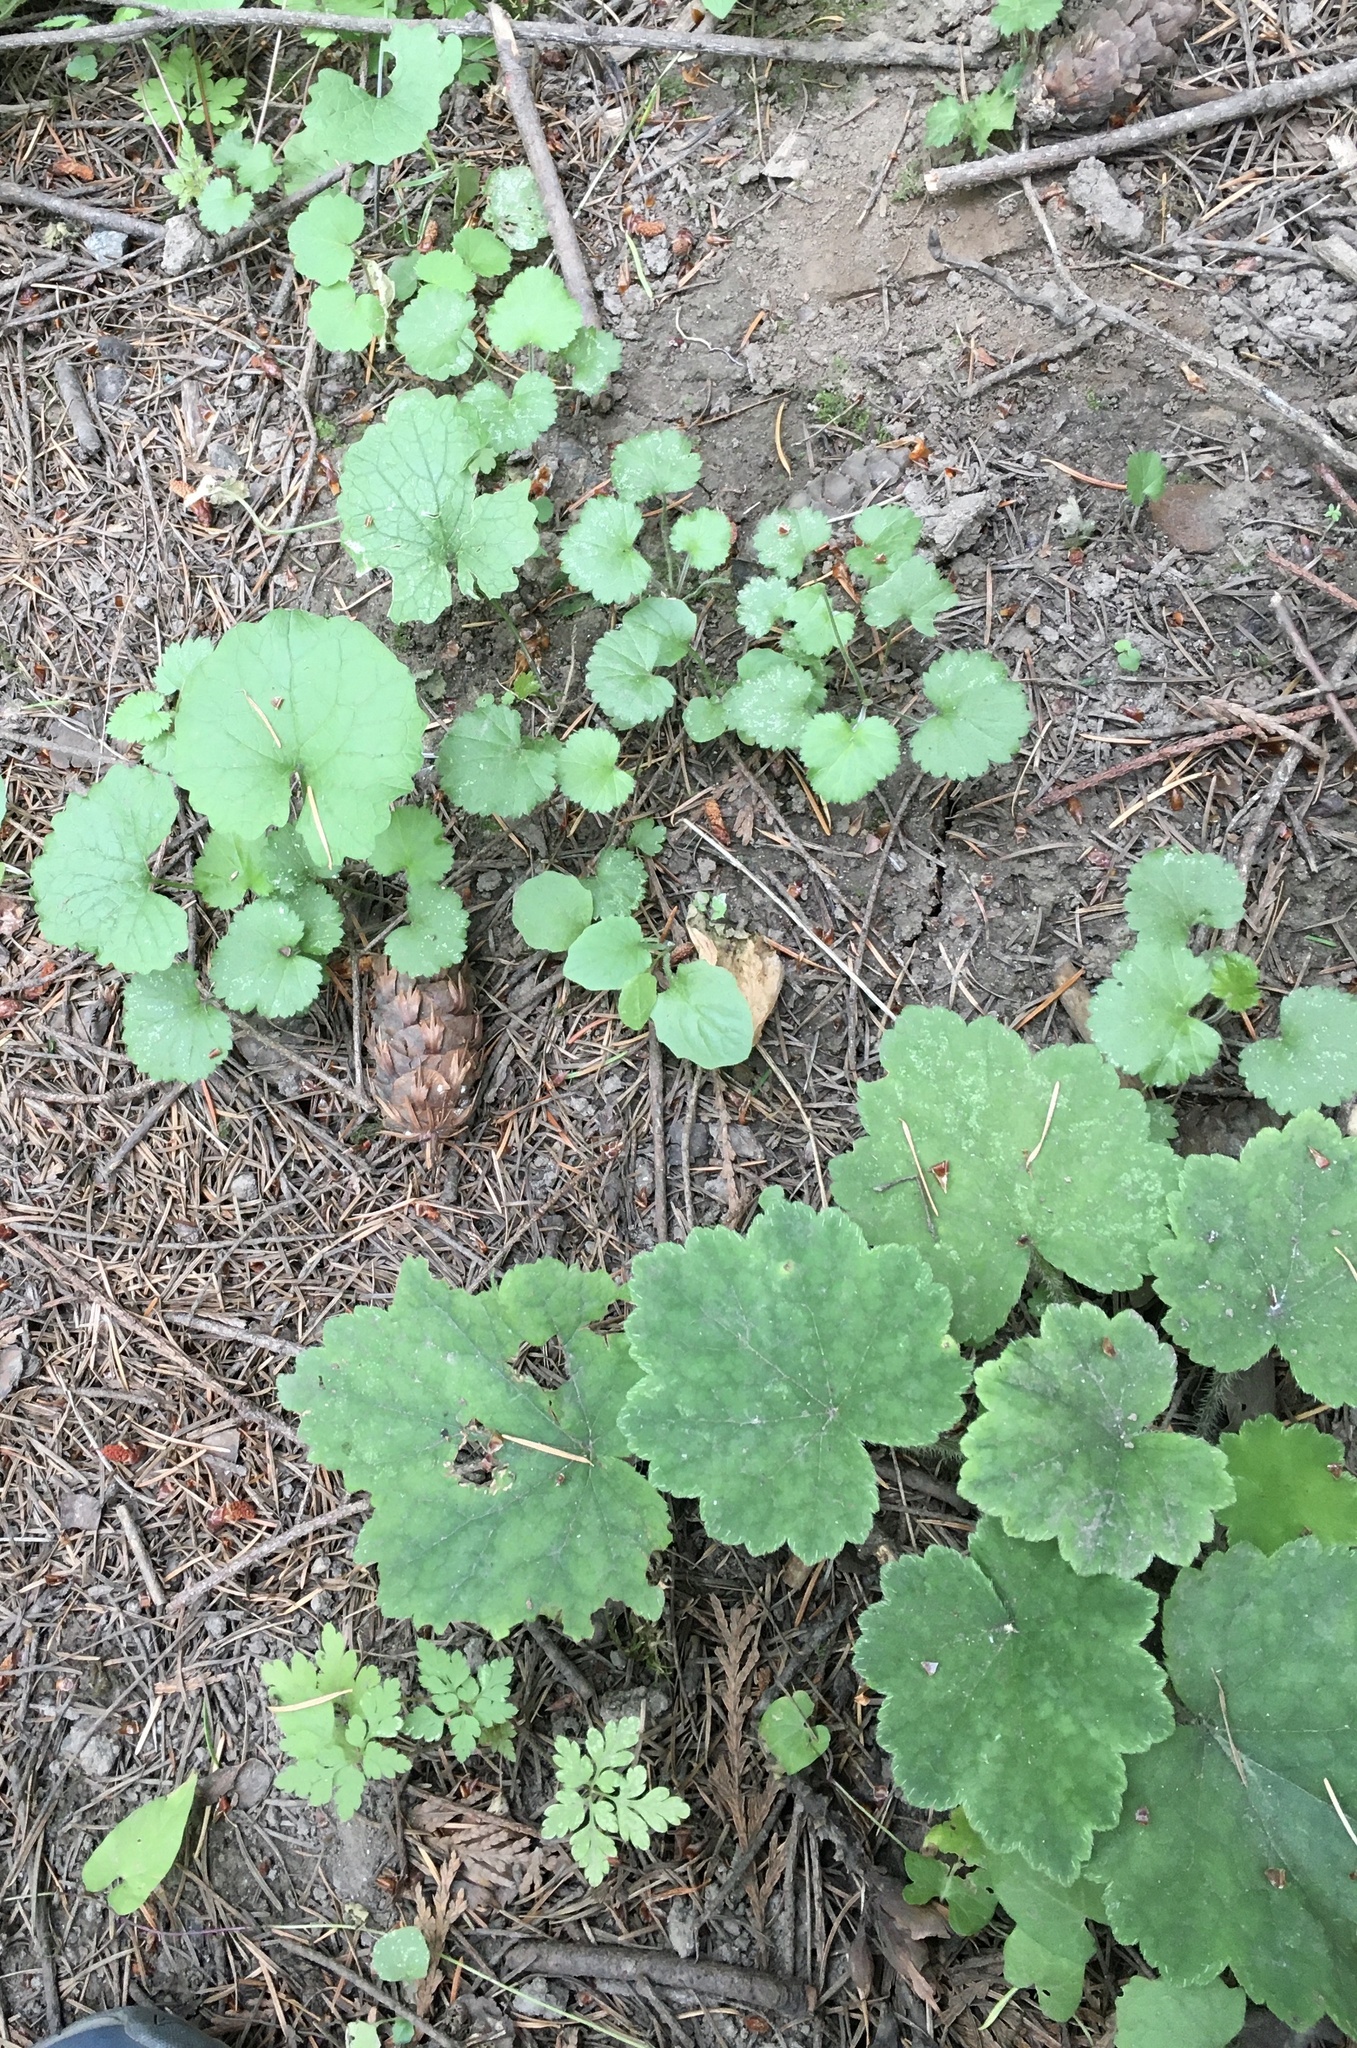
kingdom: Plantae
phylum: Tracheophyta
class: Magnoliopsida
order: Brassicales
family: Brassicaceae
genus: Alliaria
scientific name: Alliaria petiolata
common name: Garlic mustard
